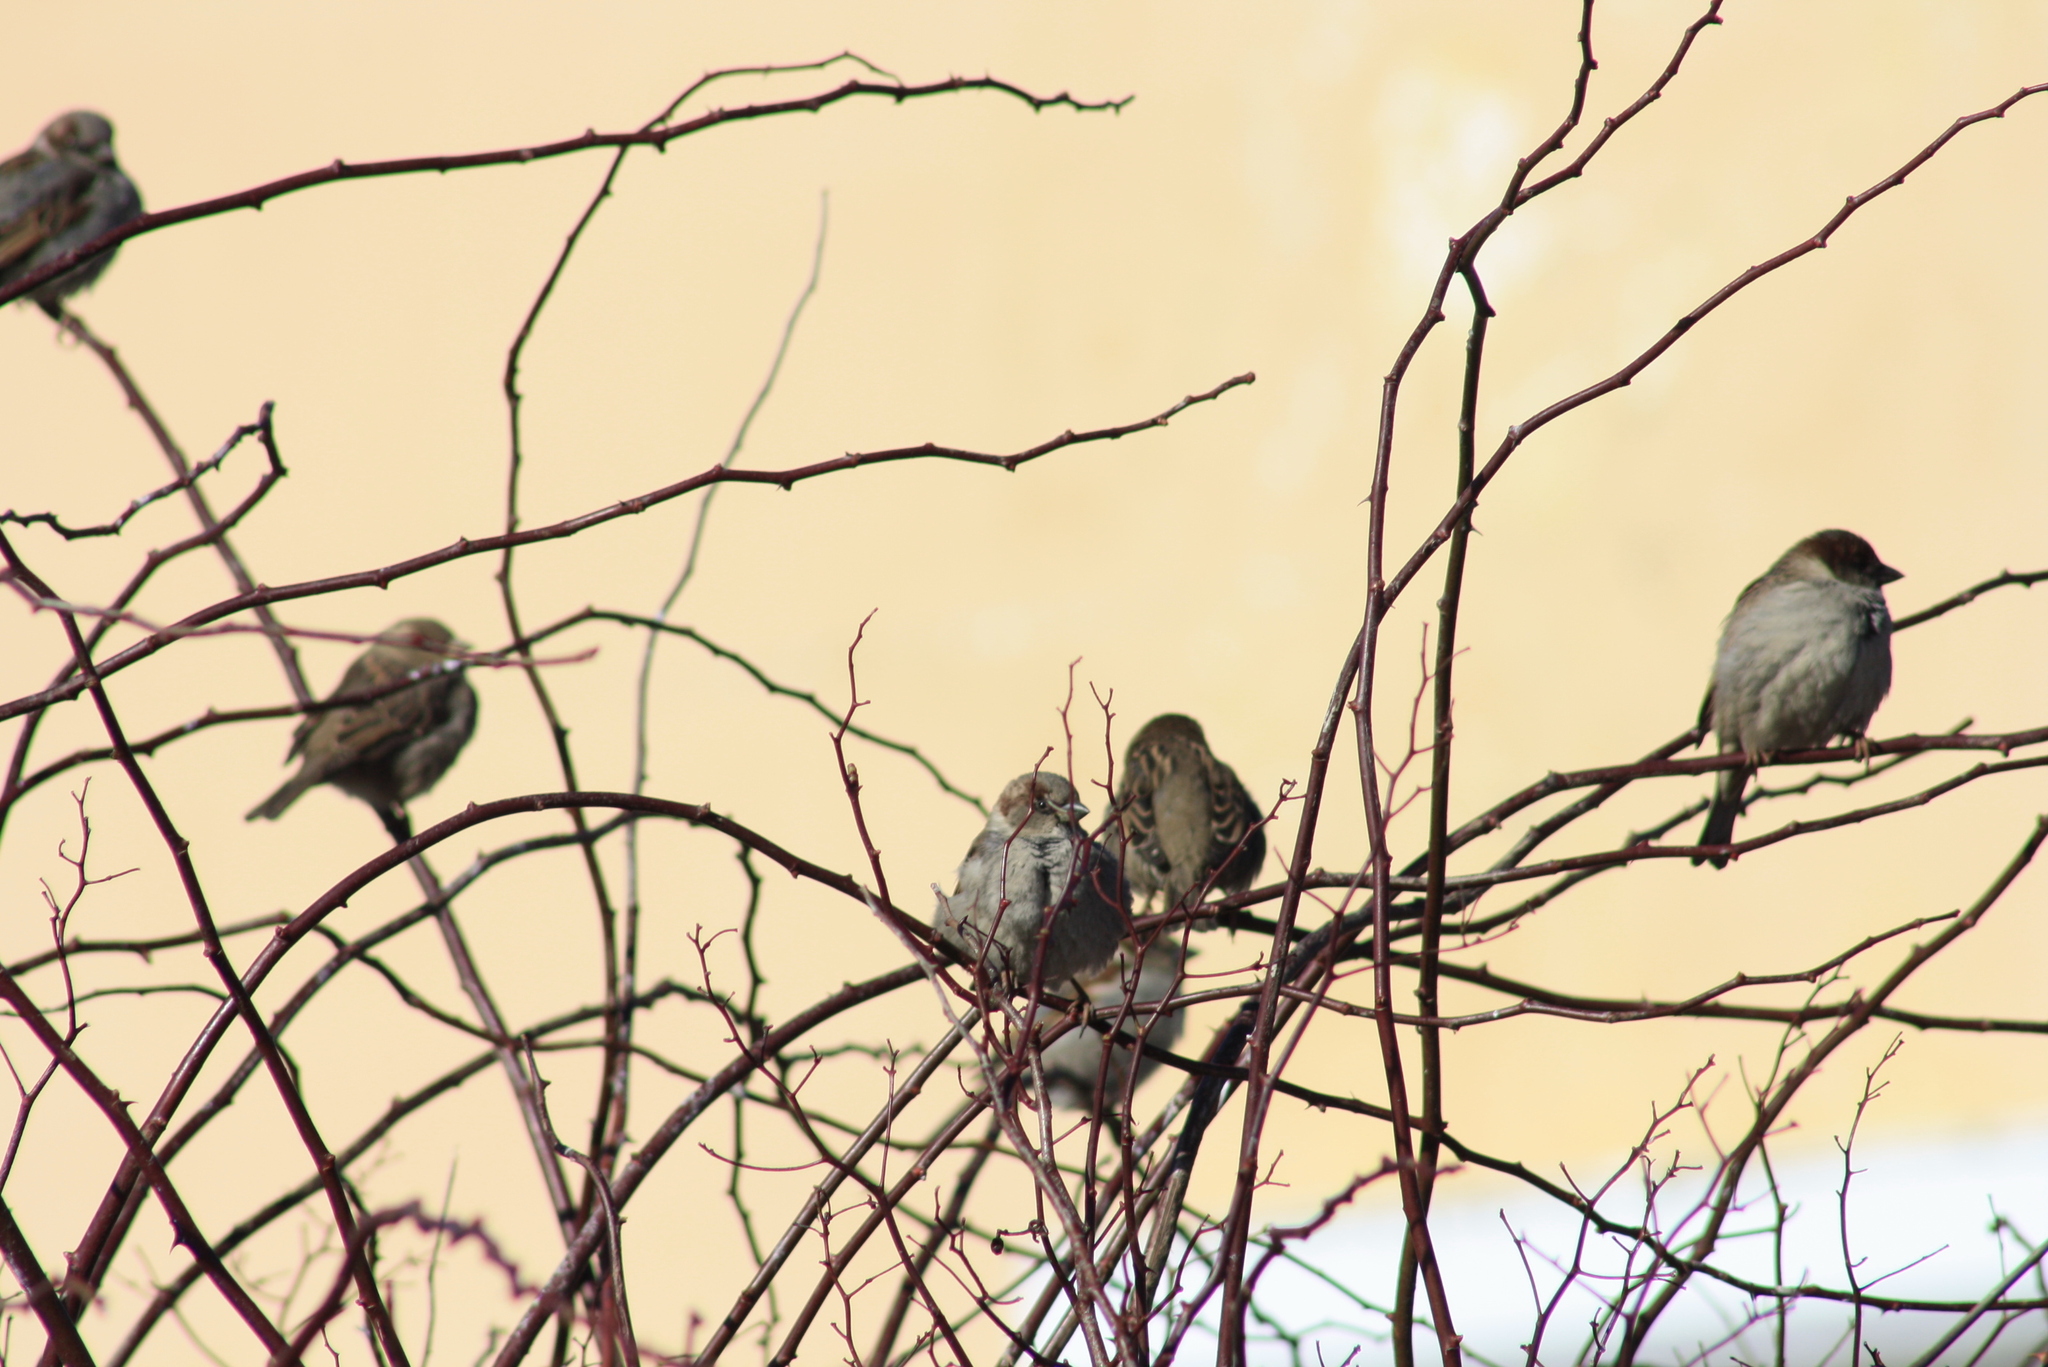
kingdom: Animalia
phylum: Chordata
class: Aves
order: Passeriformes
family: Passeridae
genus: Passer
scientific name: Passer domesticus
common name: House sparrow
